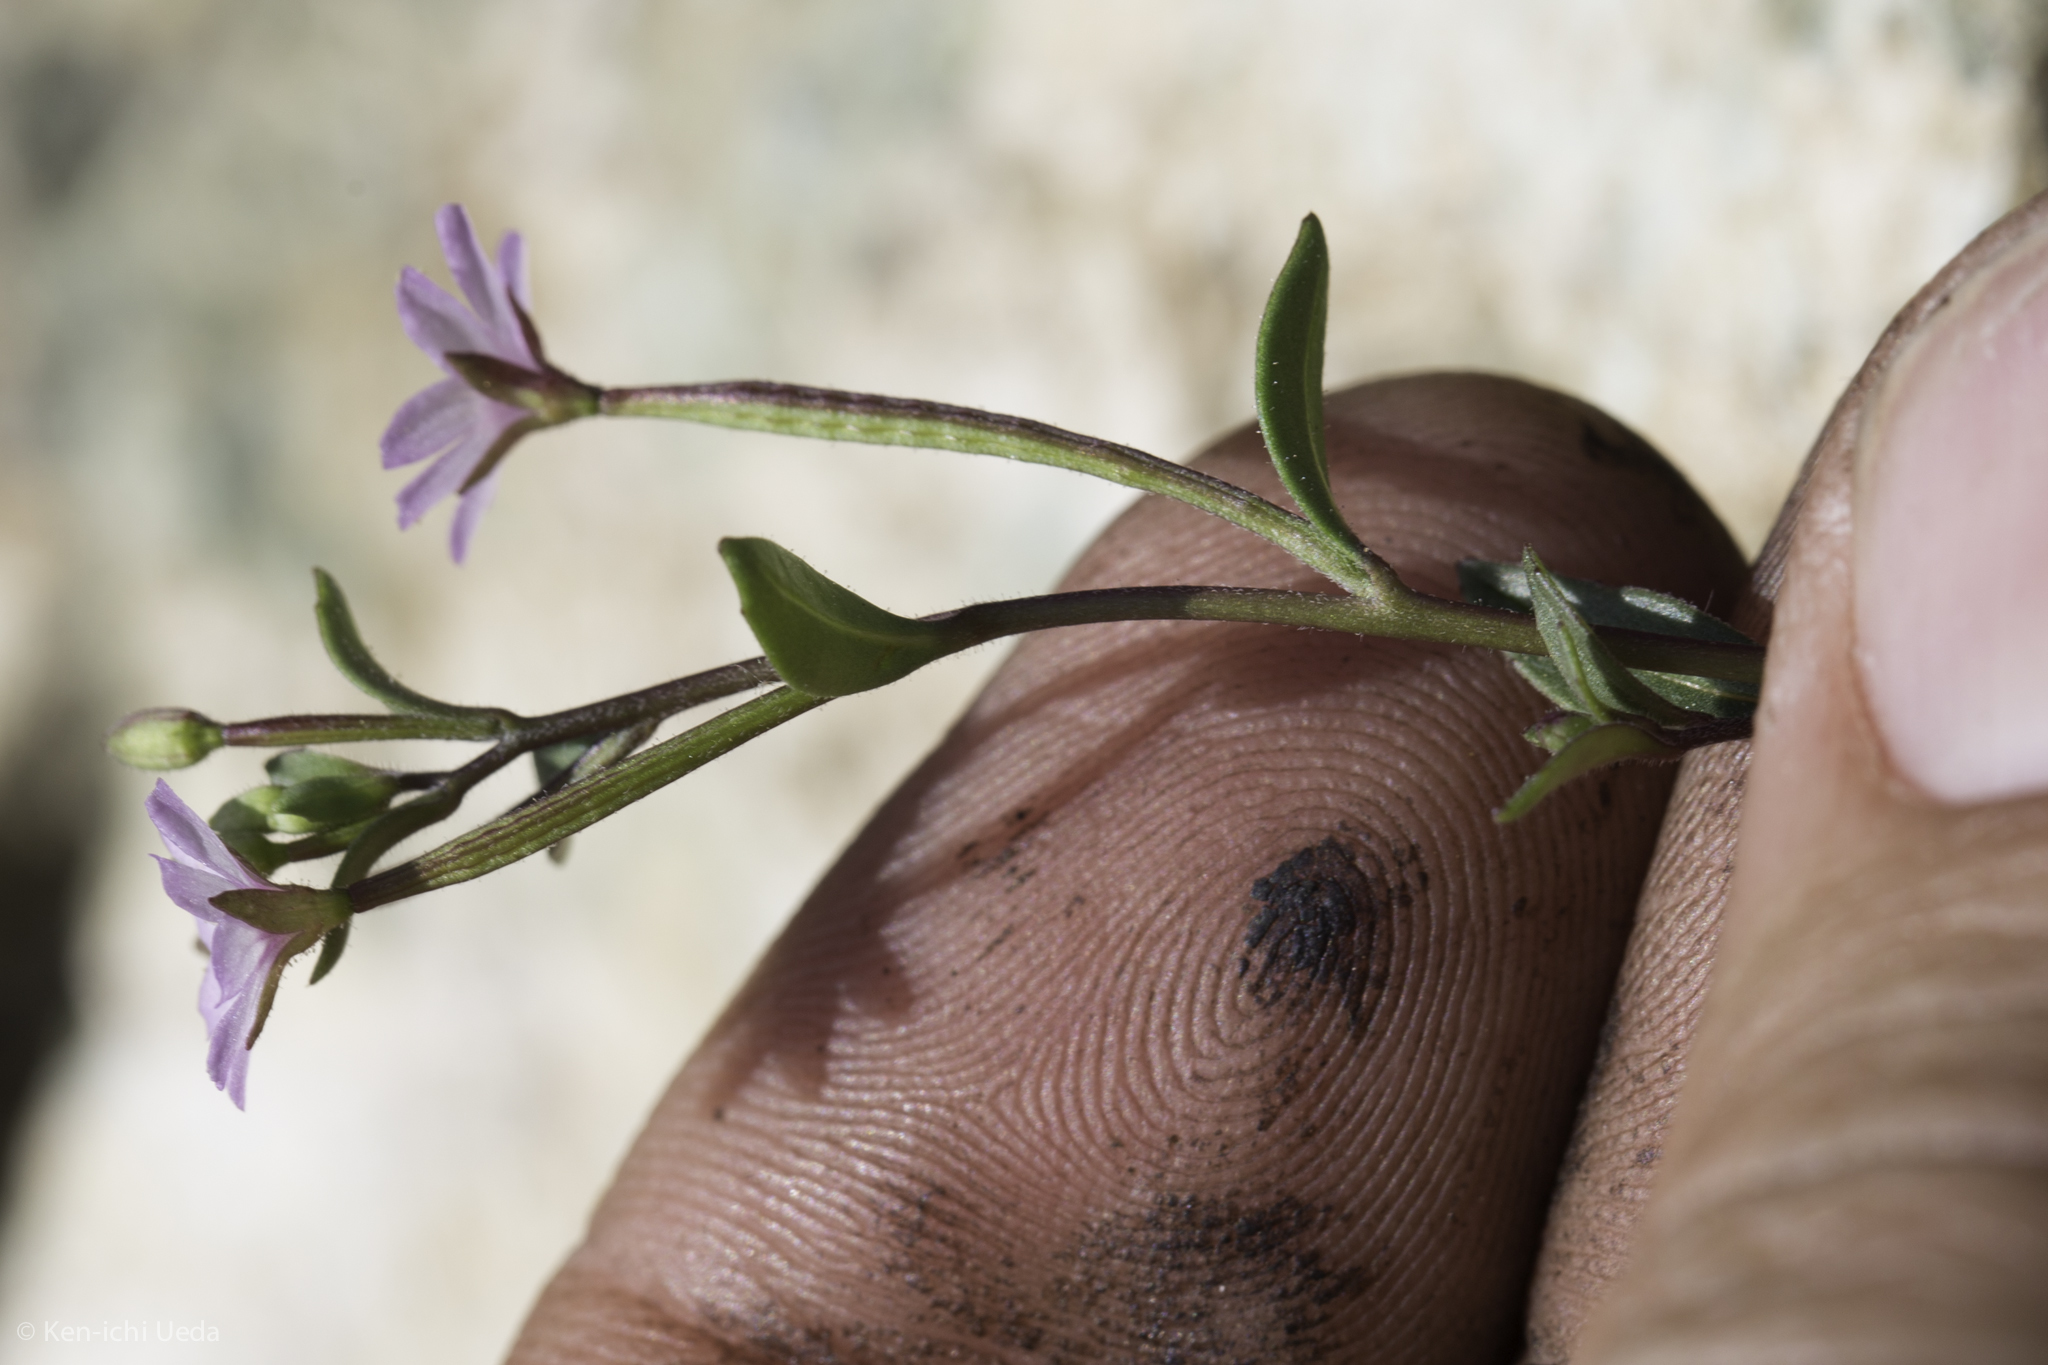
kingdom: Plantae
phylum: Tracheophyta
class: Magnoliopsida
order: Myrtales
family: Onagraceae
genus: Epilobium
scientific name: Epilobium minutum
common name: Chaparral willowherb
